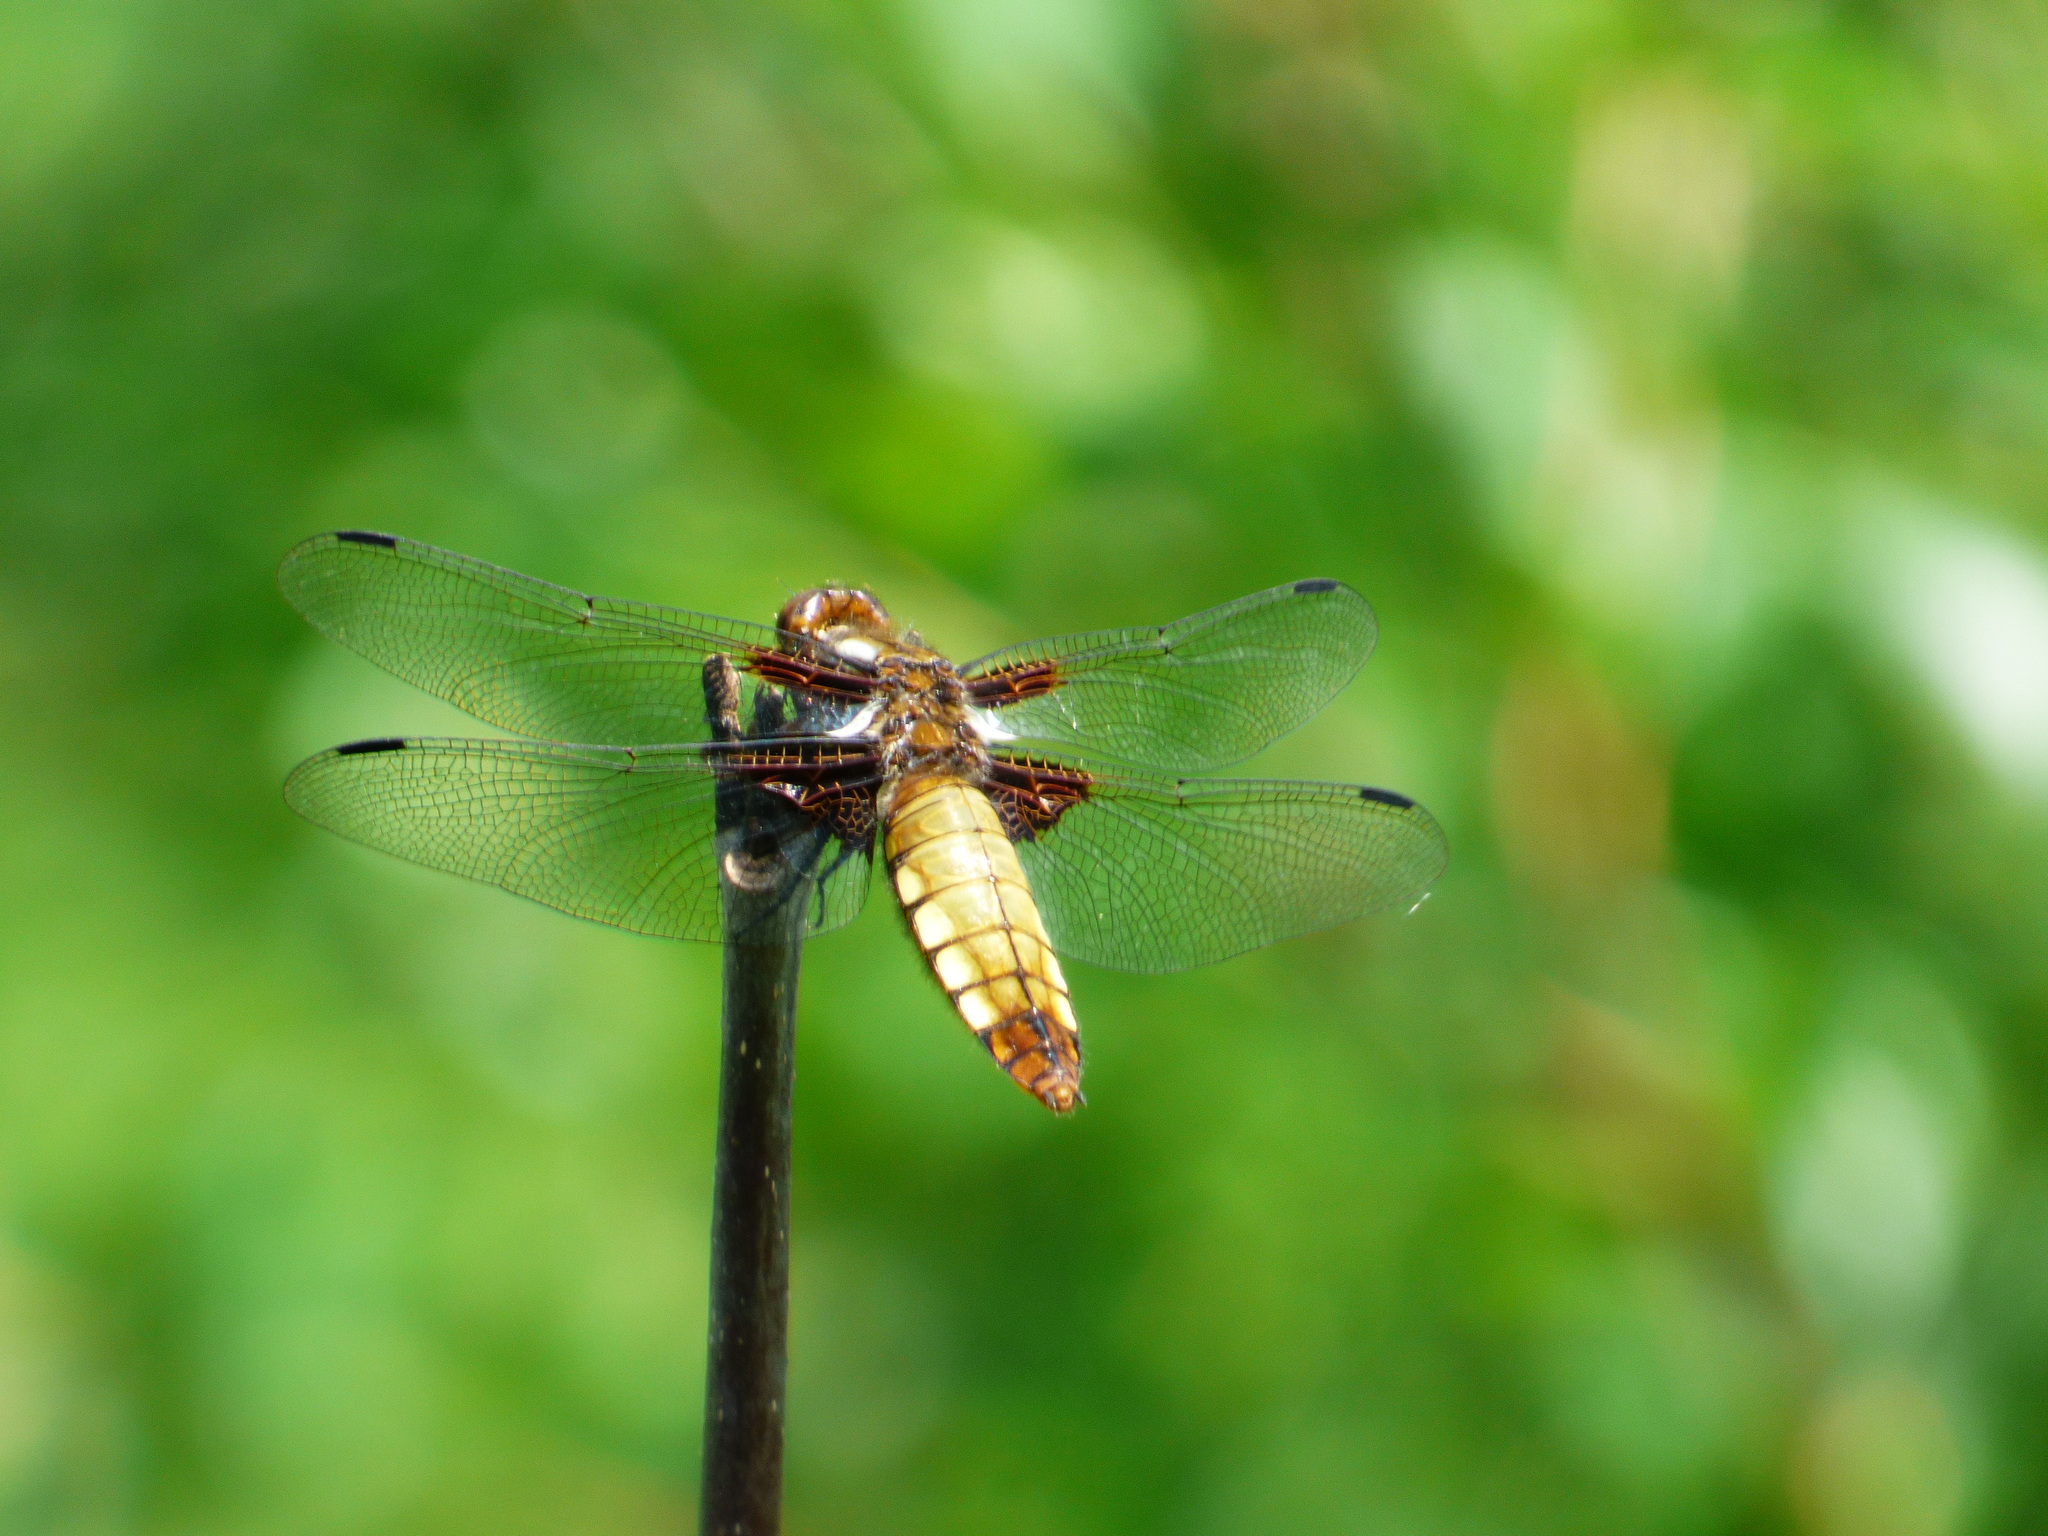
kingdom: Animalia
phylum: Arthropoda
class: Insecta
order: Odonata
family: Libellulidae
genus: Libellula
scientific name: Libellula depressa
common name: Broad-bodied chaser
